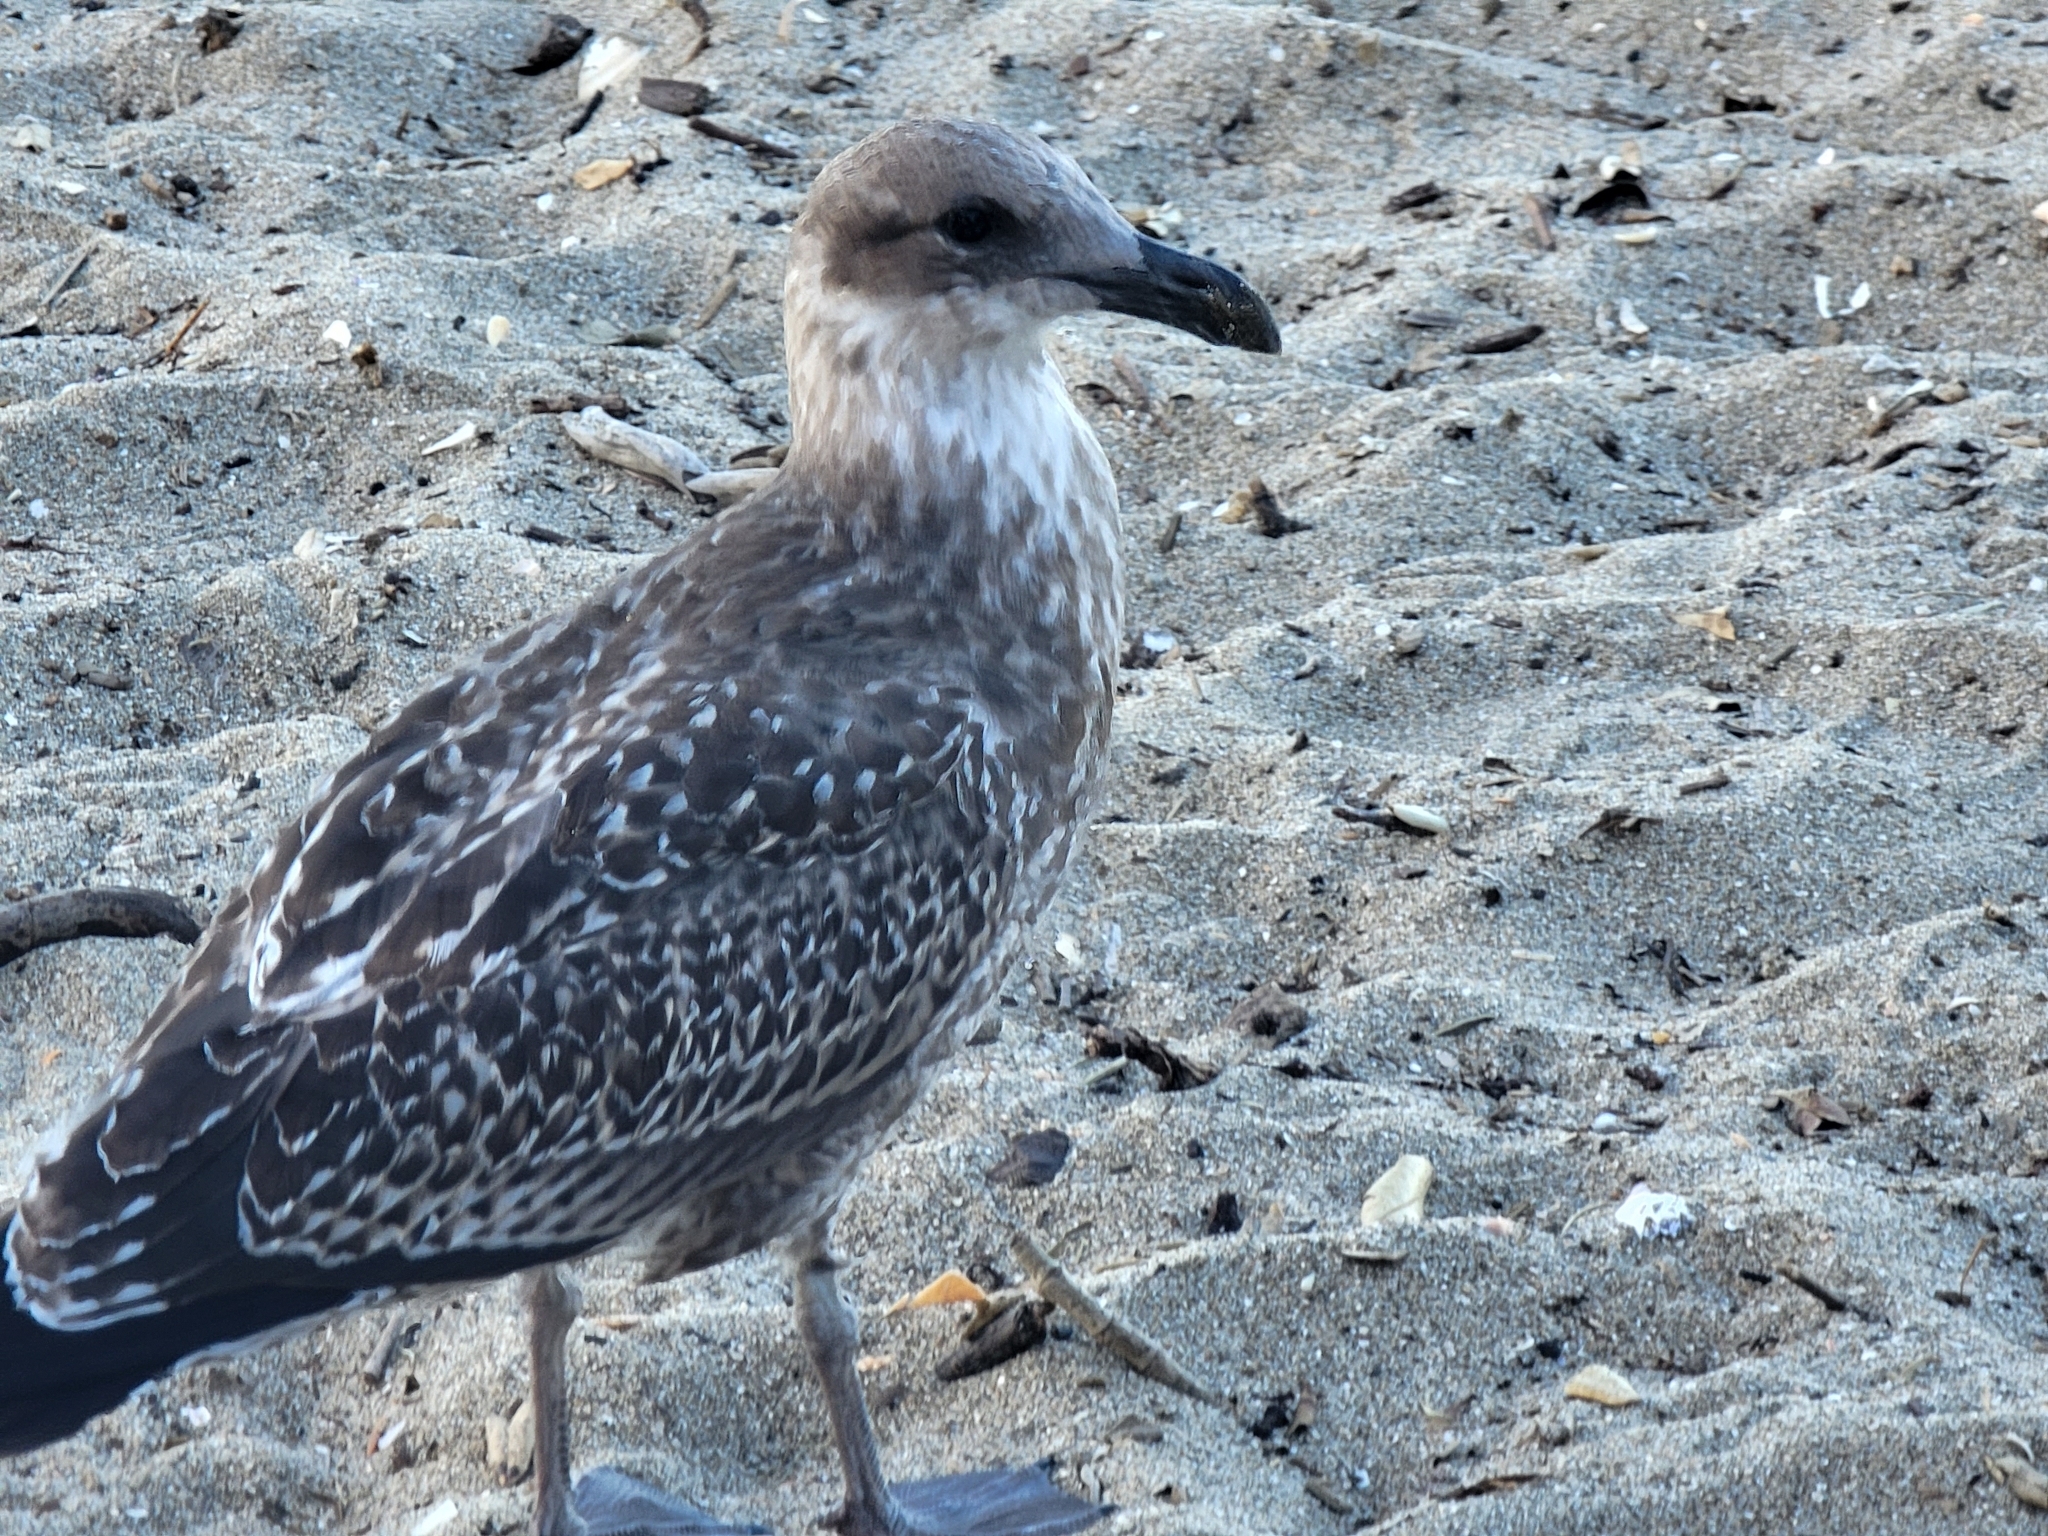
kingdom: Animalia
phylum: Chordata
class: Aves
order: Charadriiformes
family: Laridae
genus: Larus
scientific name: Larus dominicanus
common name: Kelp gull
